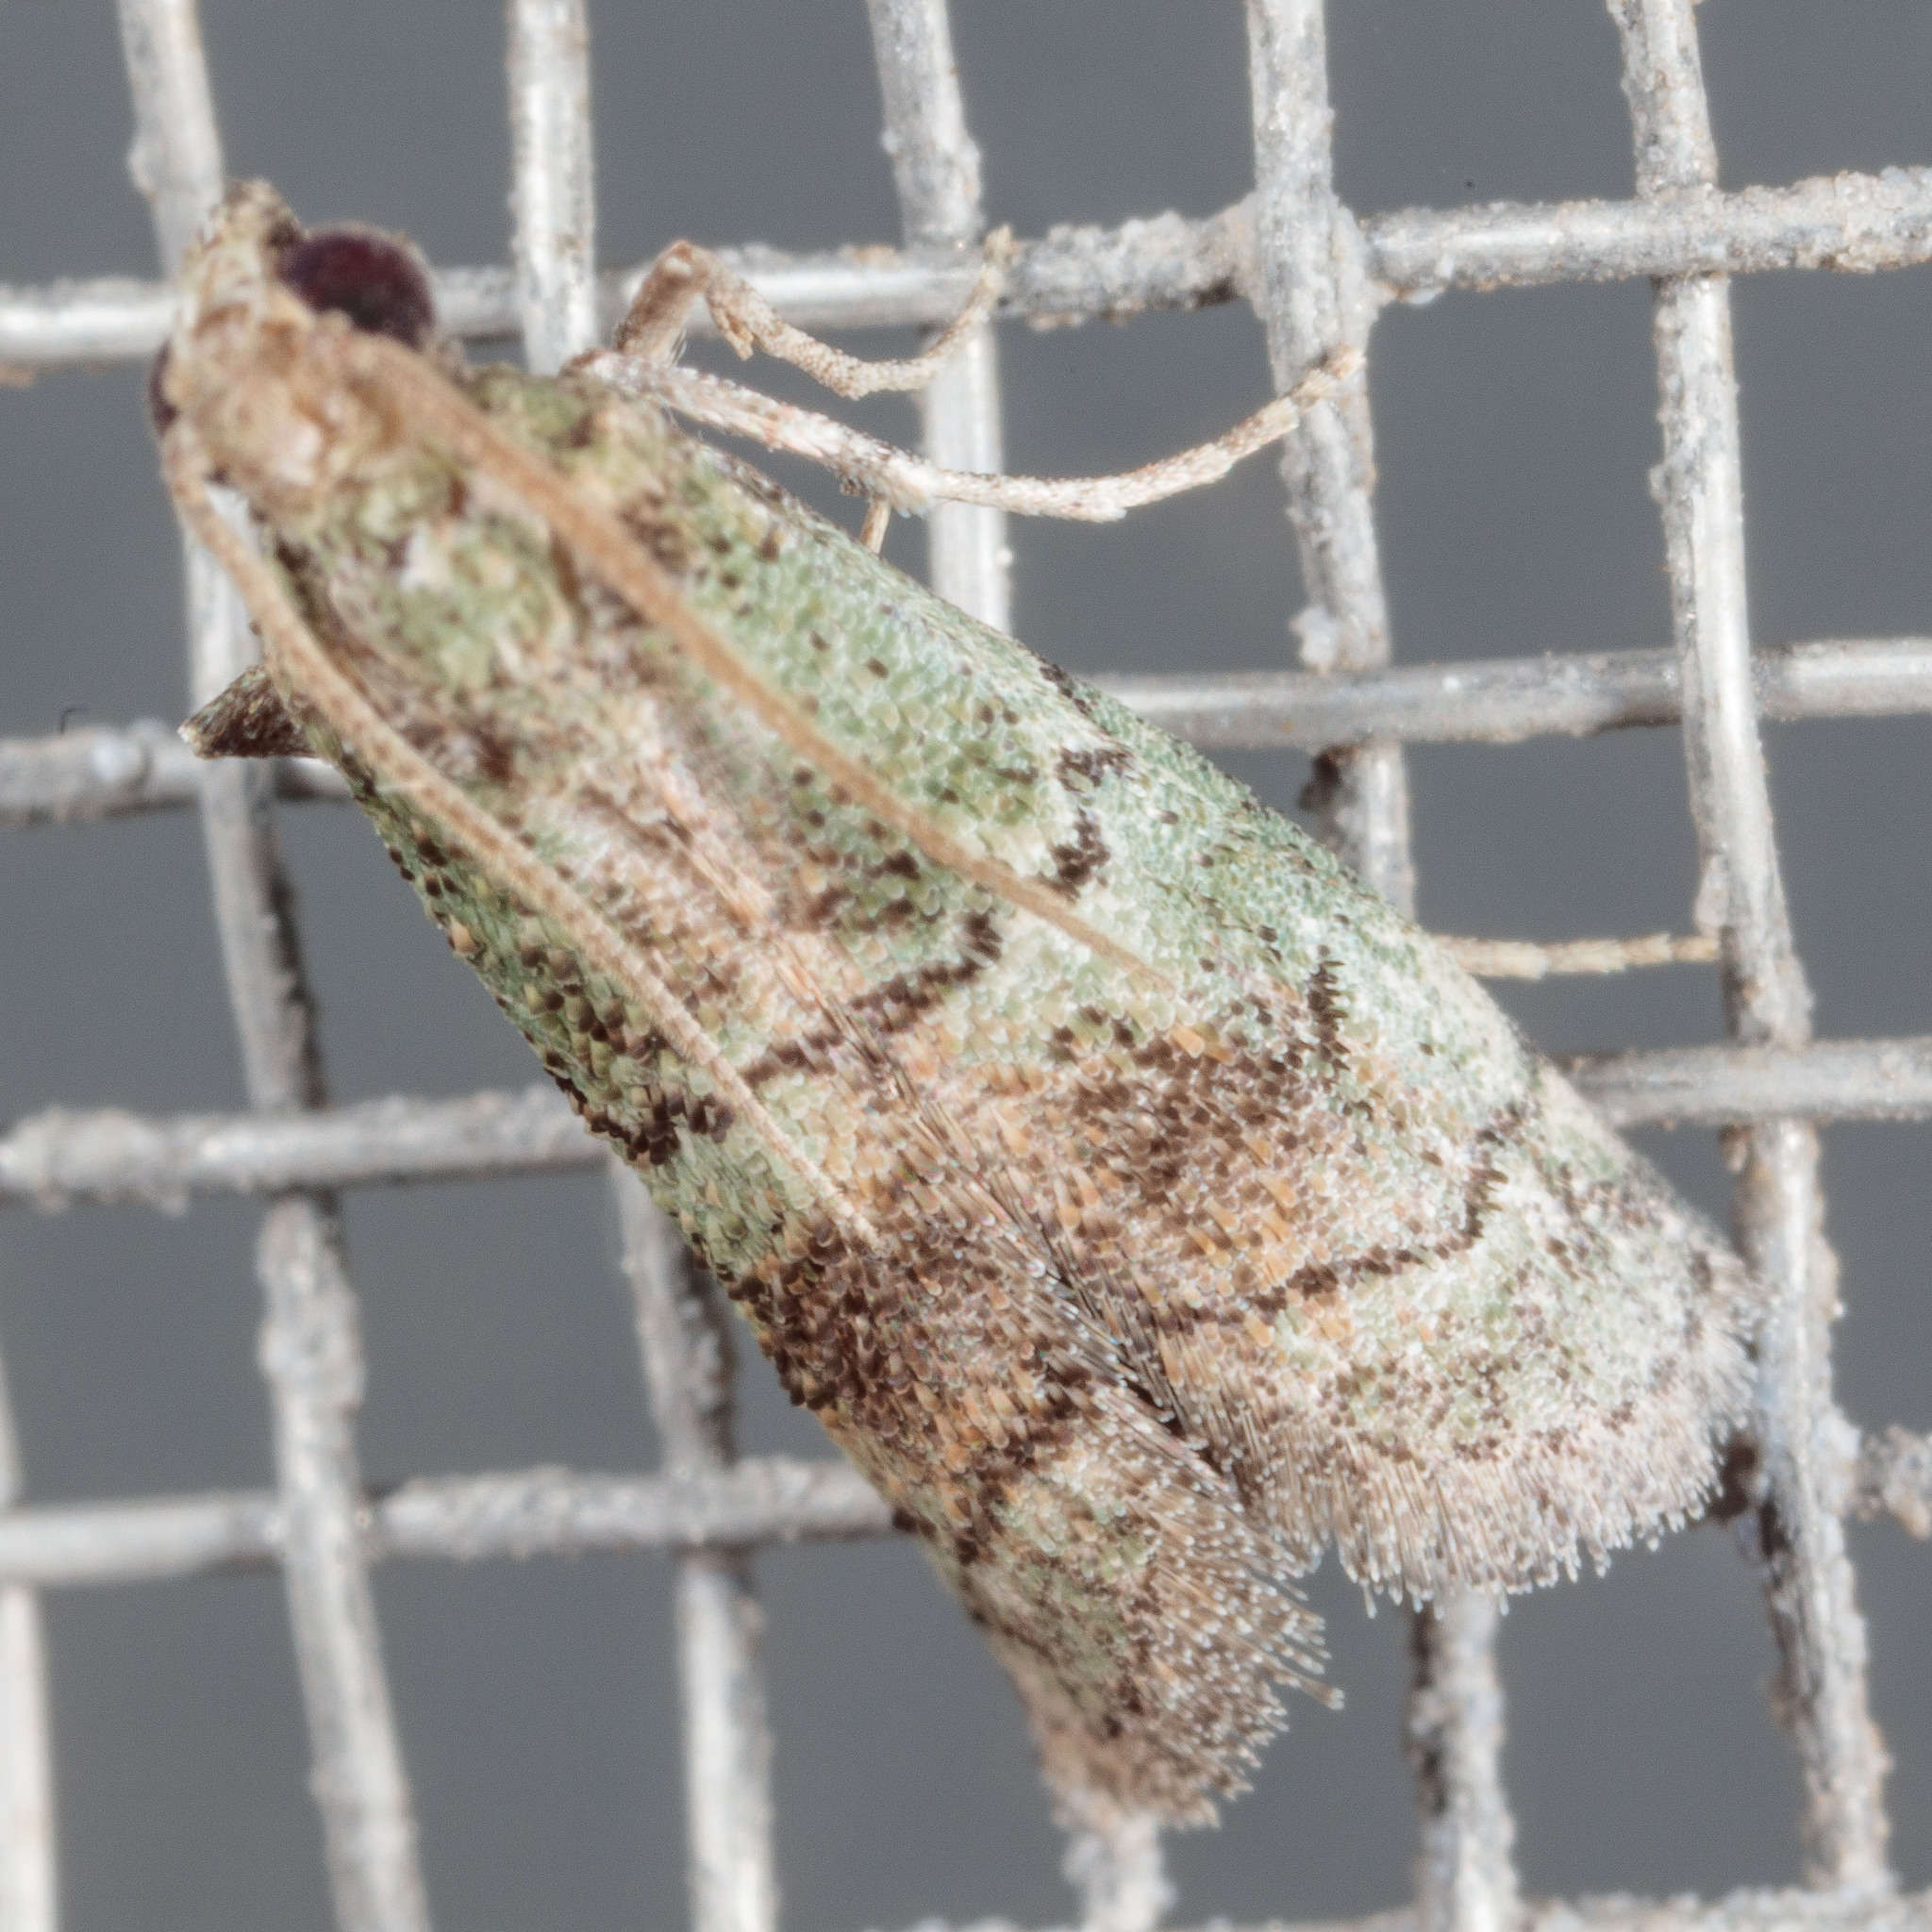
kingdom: Animalia
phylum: Arthropoda
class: Insecta
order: Lepidoptera
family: Pyralidae
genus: Cacotherapia
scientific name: Cacotherapia flexilinealis
